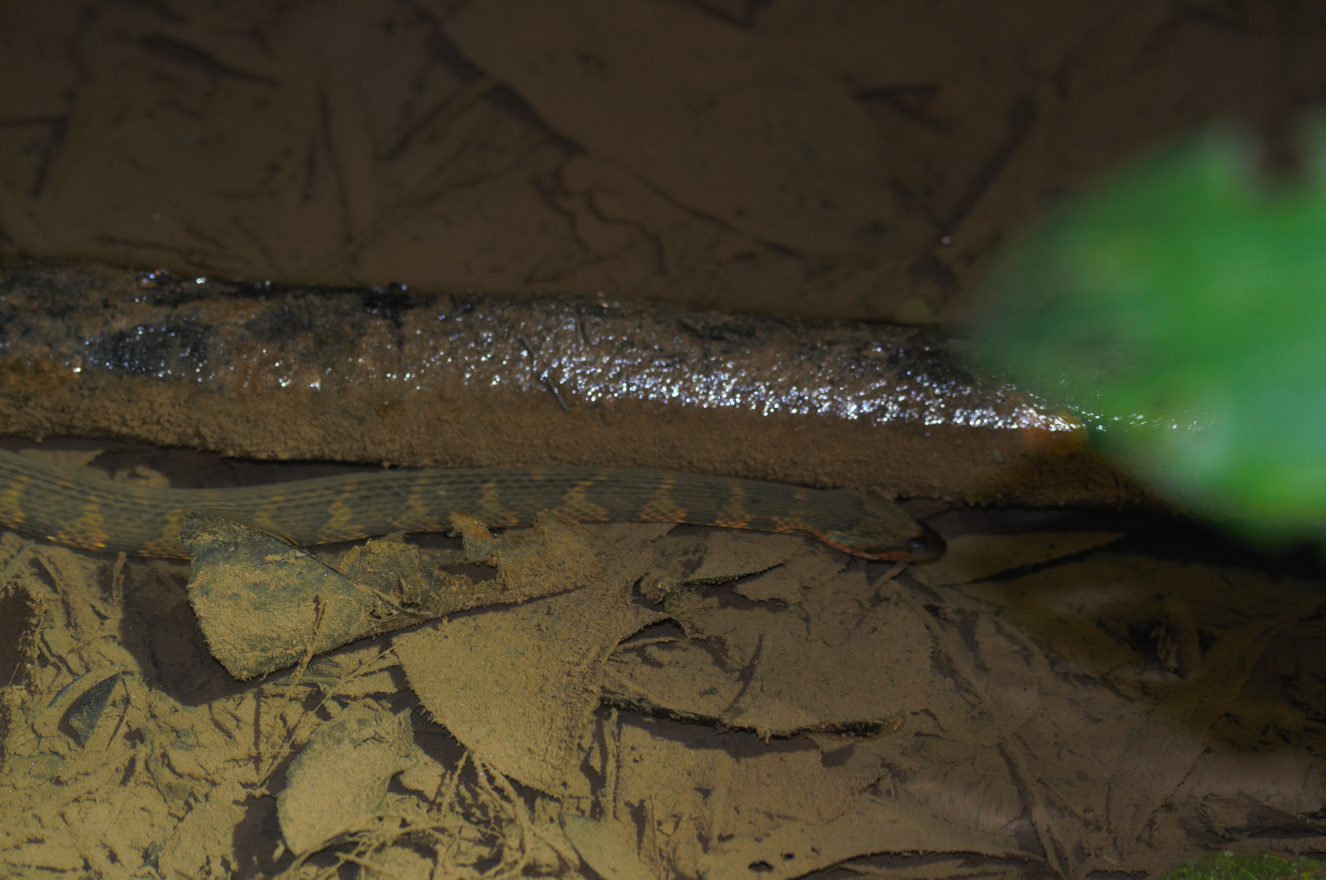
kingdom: Animalia
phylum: Chordata
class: Squamata
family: Colubridae
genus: Helicops
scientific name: Helicops angulatus
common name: Mountain keelback
